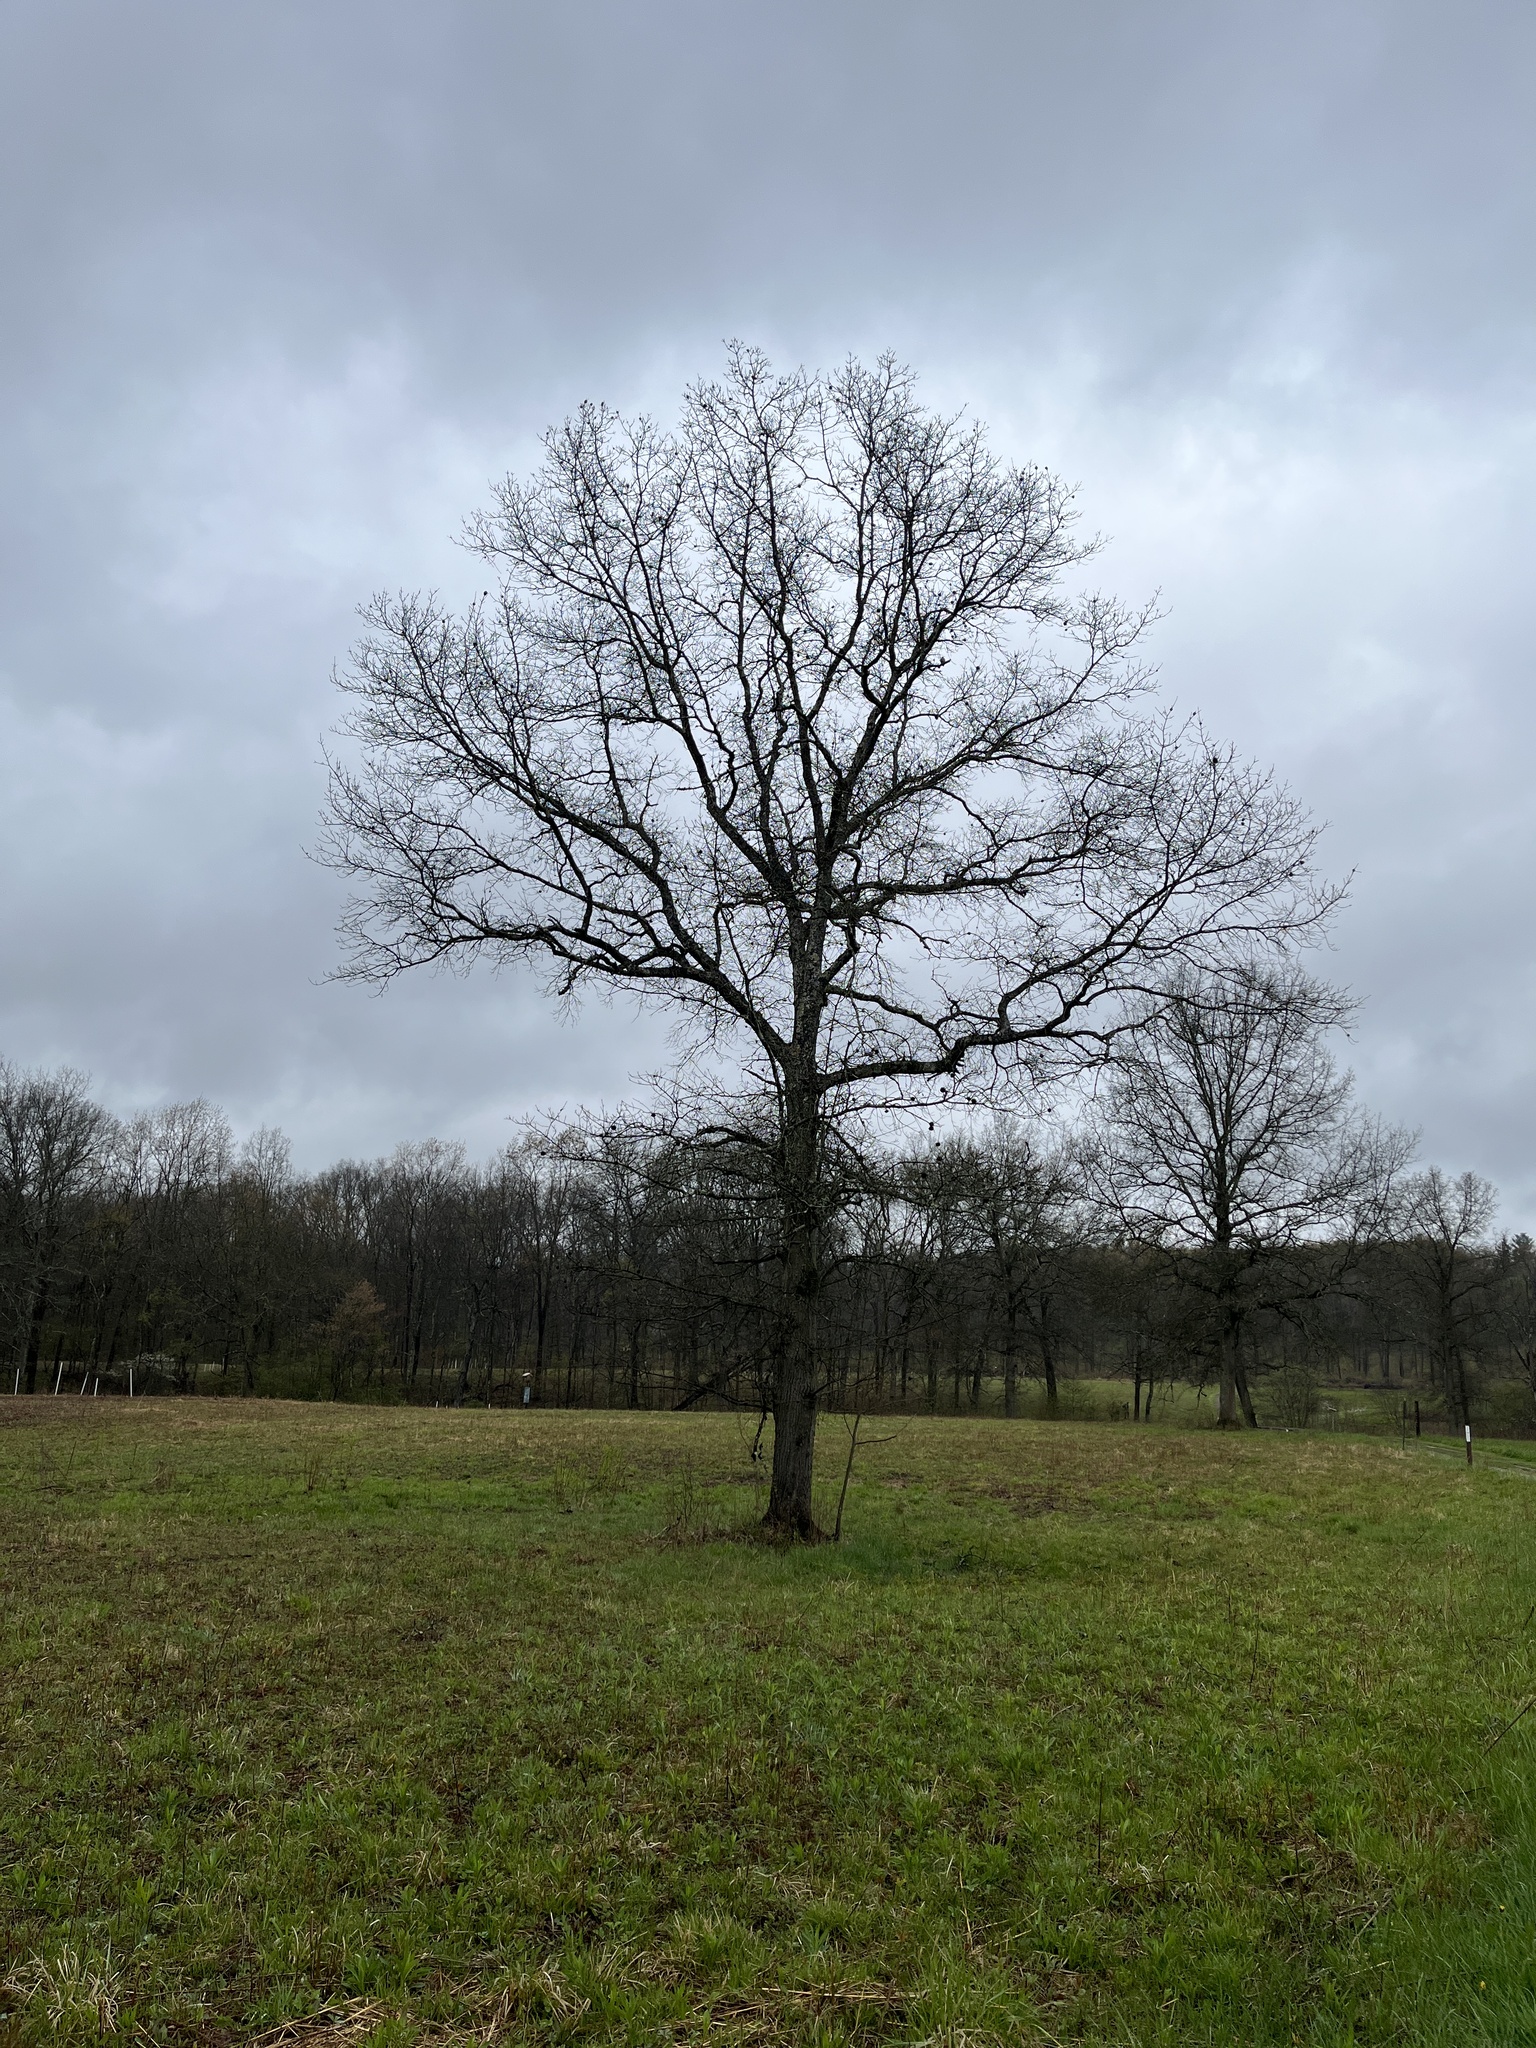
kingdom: Plantae
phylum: Tracheophyta
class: Magnoliopsida
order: Fagales
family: Fagaceae
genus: Quercus
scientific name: Quercus imbricaria
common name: Shingle oak
